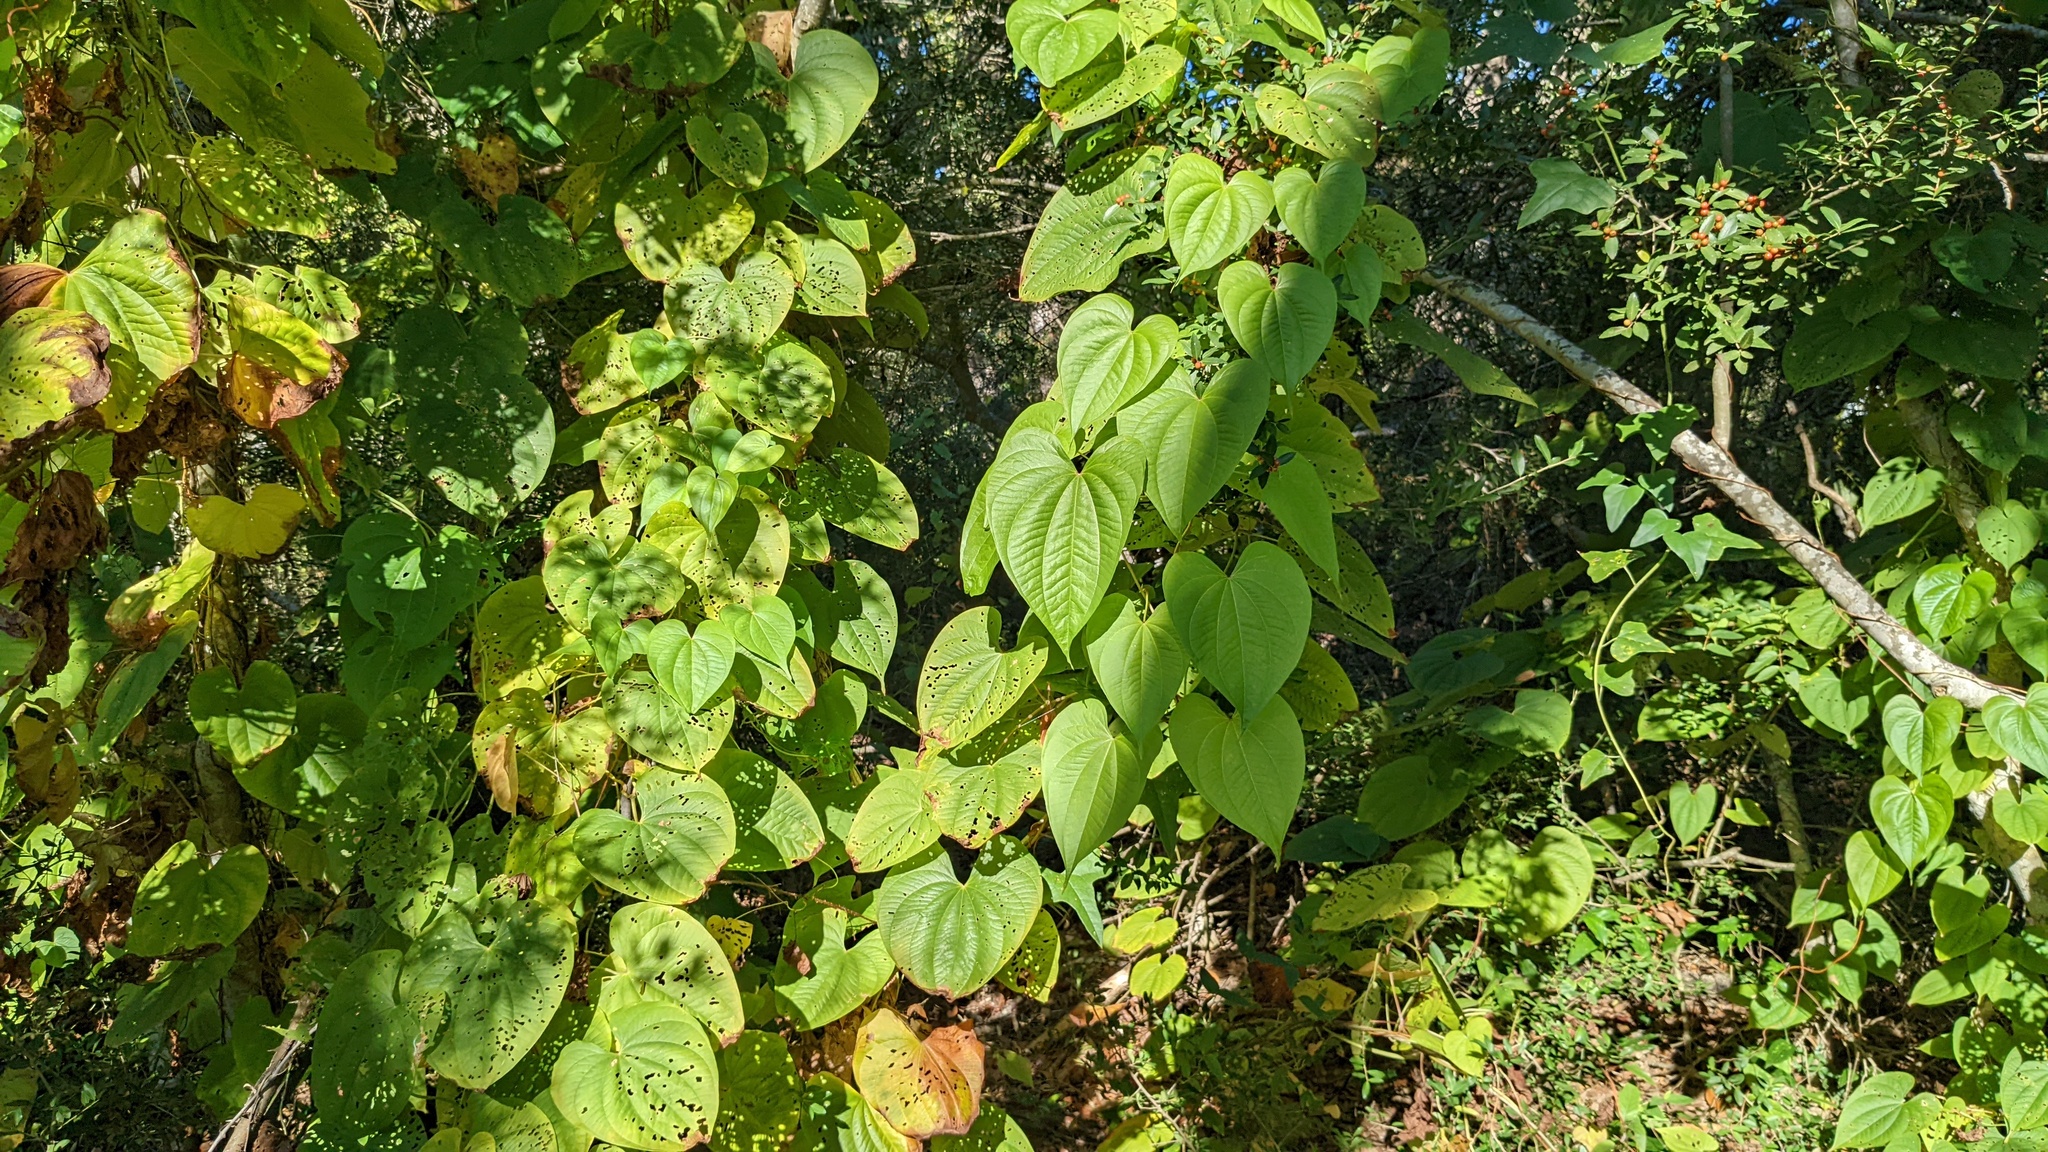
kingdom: Plantae
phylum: Tracheophyta
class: Liliopsida
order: Dioscoreales
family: Dioscoreaceae
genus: Dioscorea
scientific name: Dioscorea bulbifera
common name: Air yam
